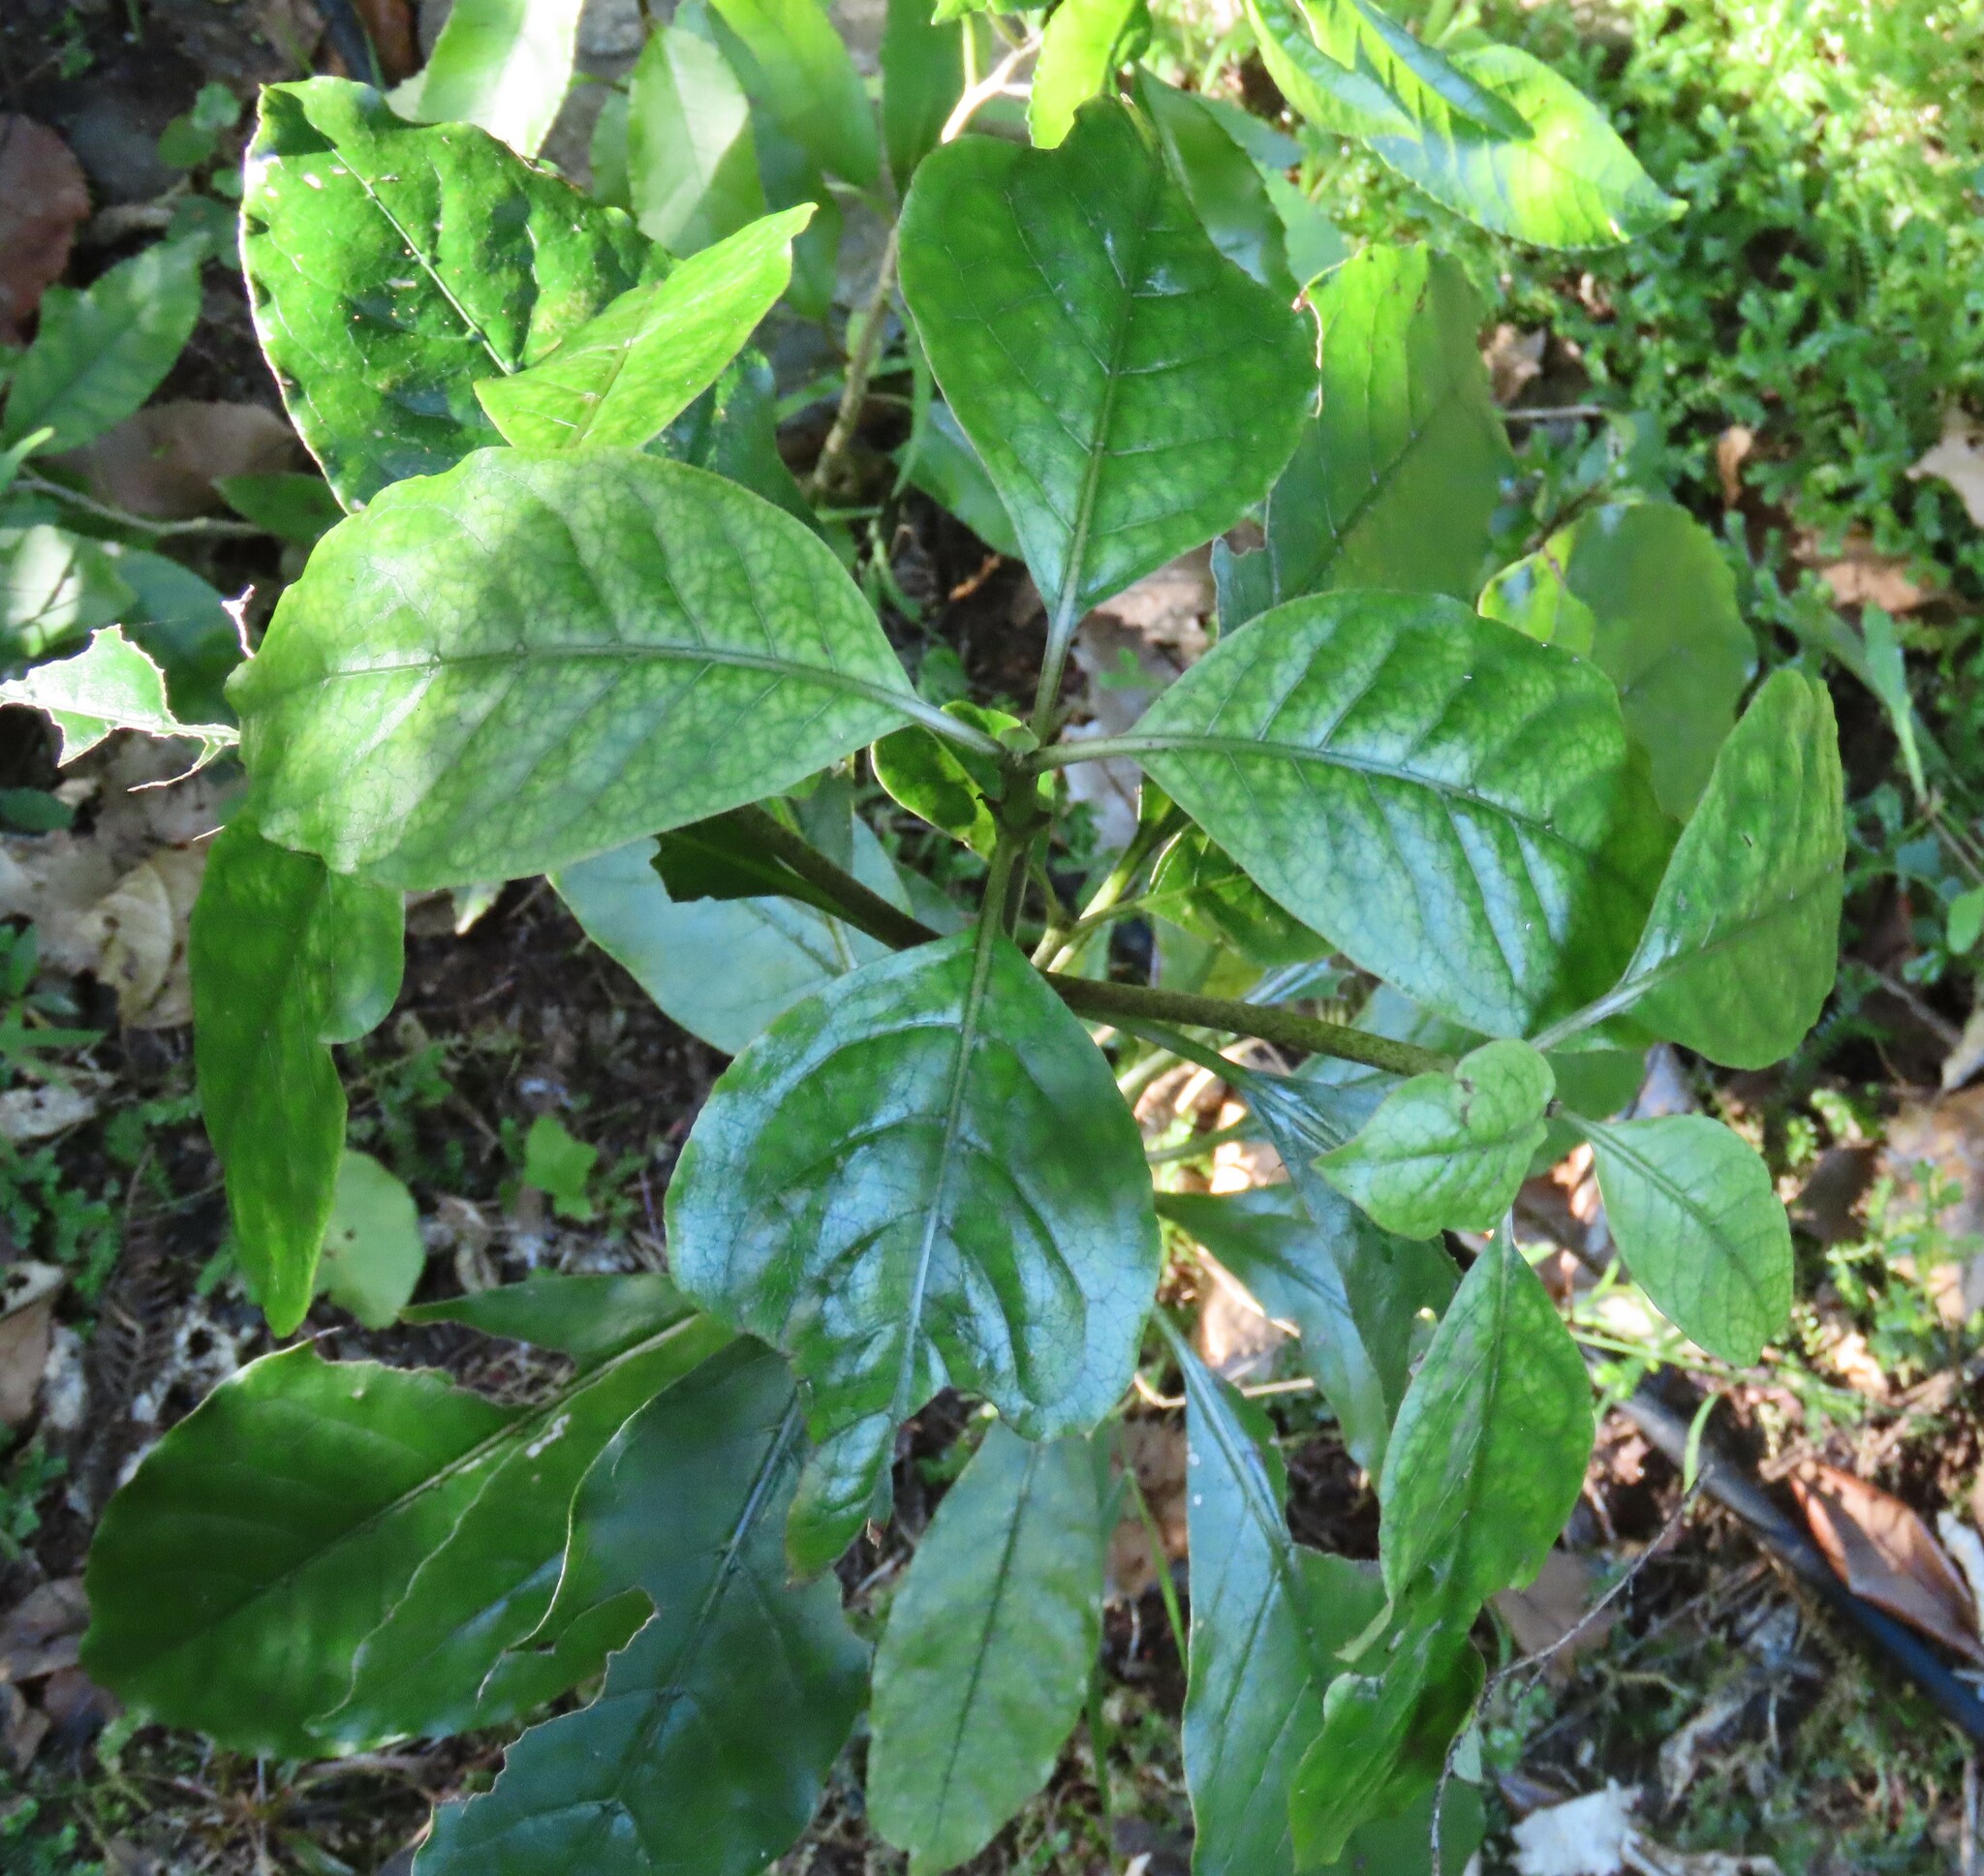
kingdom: Plantae
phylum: Tracheophyta
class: Magnoliopsida
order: Gentianales
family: Rubiaceae
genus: Coprosma
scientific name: Coprosma autumnalis
